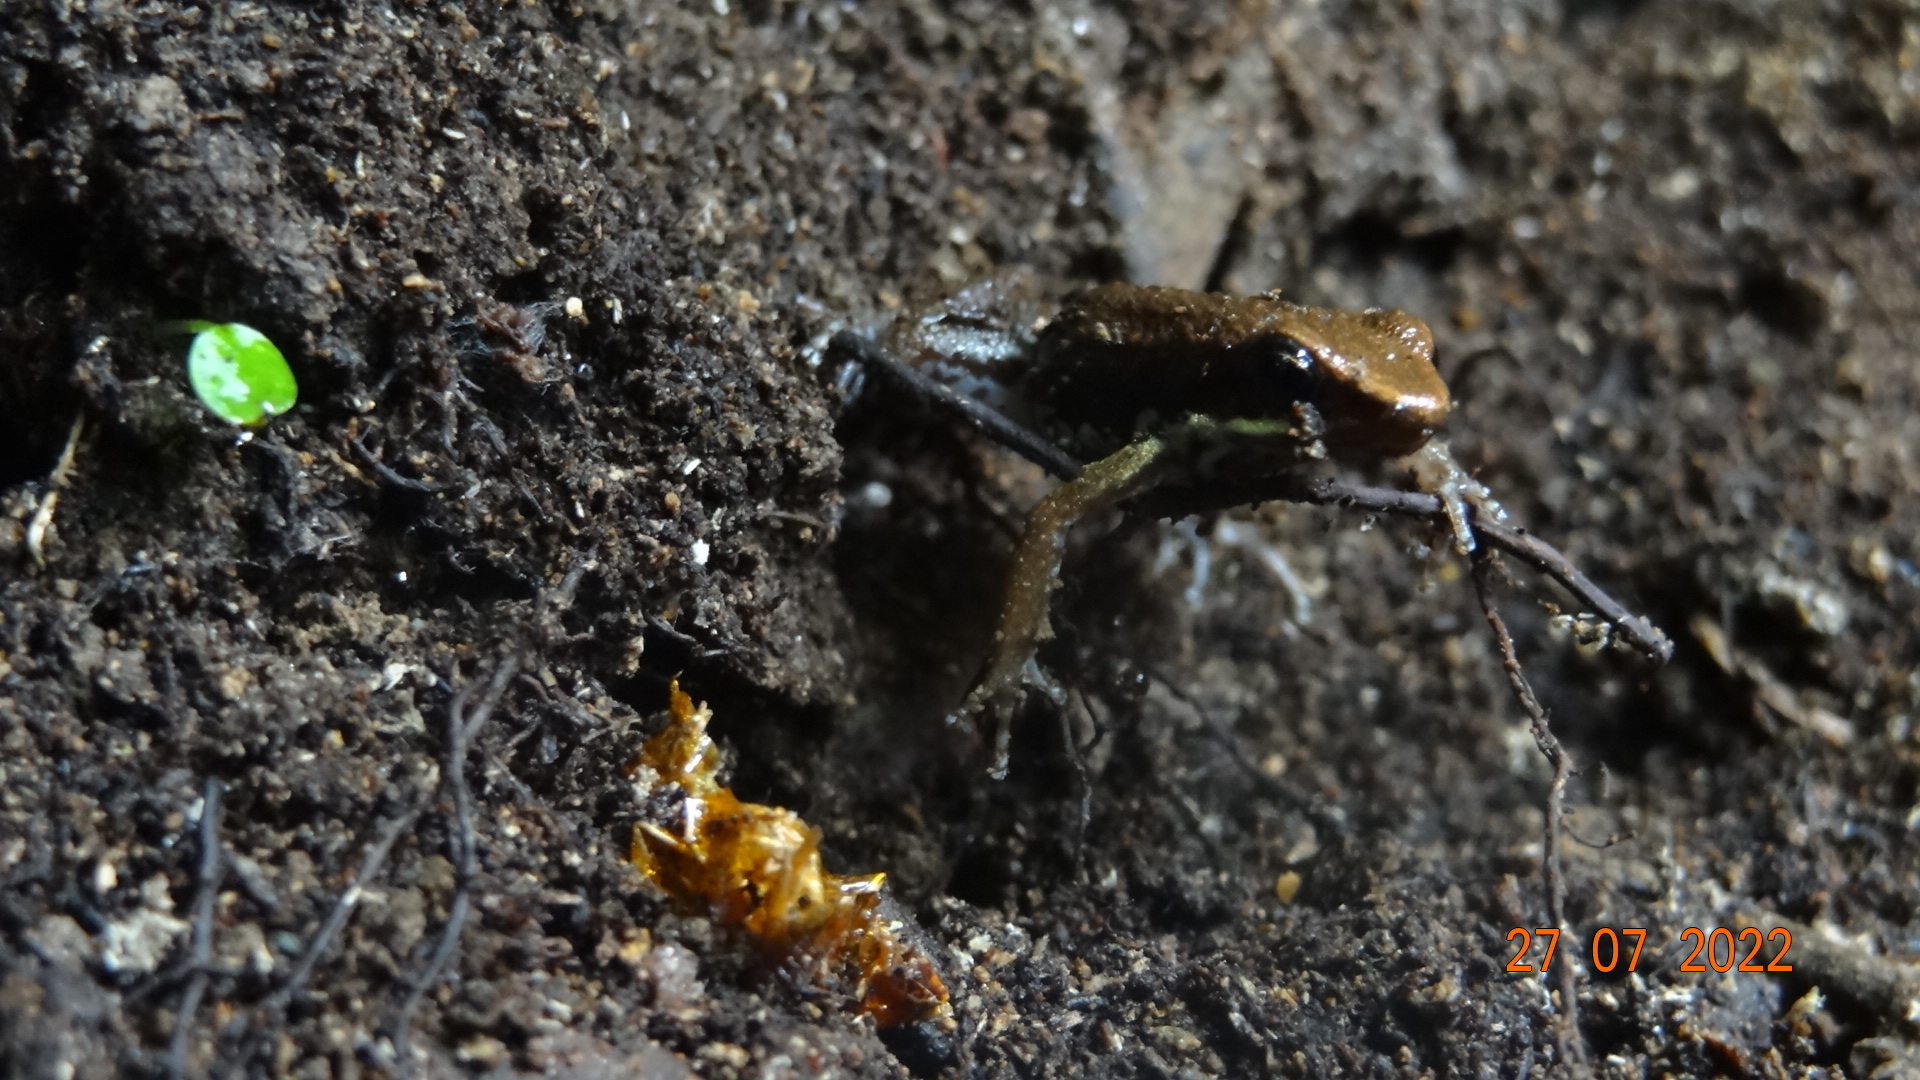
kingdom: Animalia
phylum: Chordata
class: Amphibia
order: Anura
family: Dendrobatidae
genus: Epipedobates
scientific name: Epipedobates boulengeri
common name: Marbled poison-arrow frog
